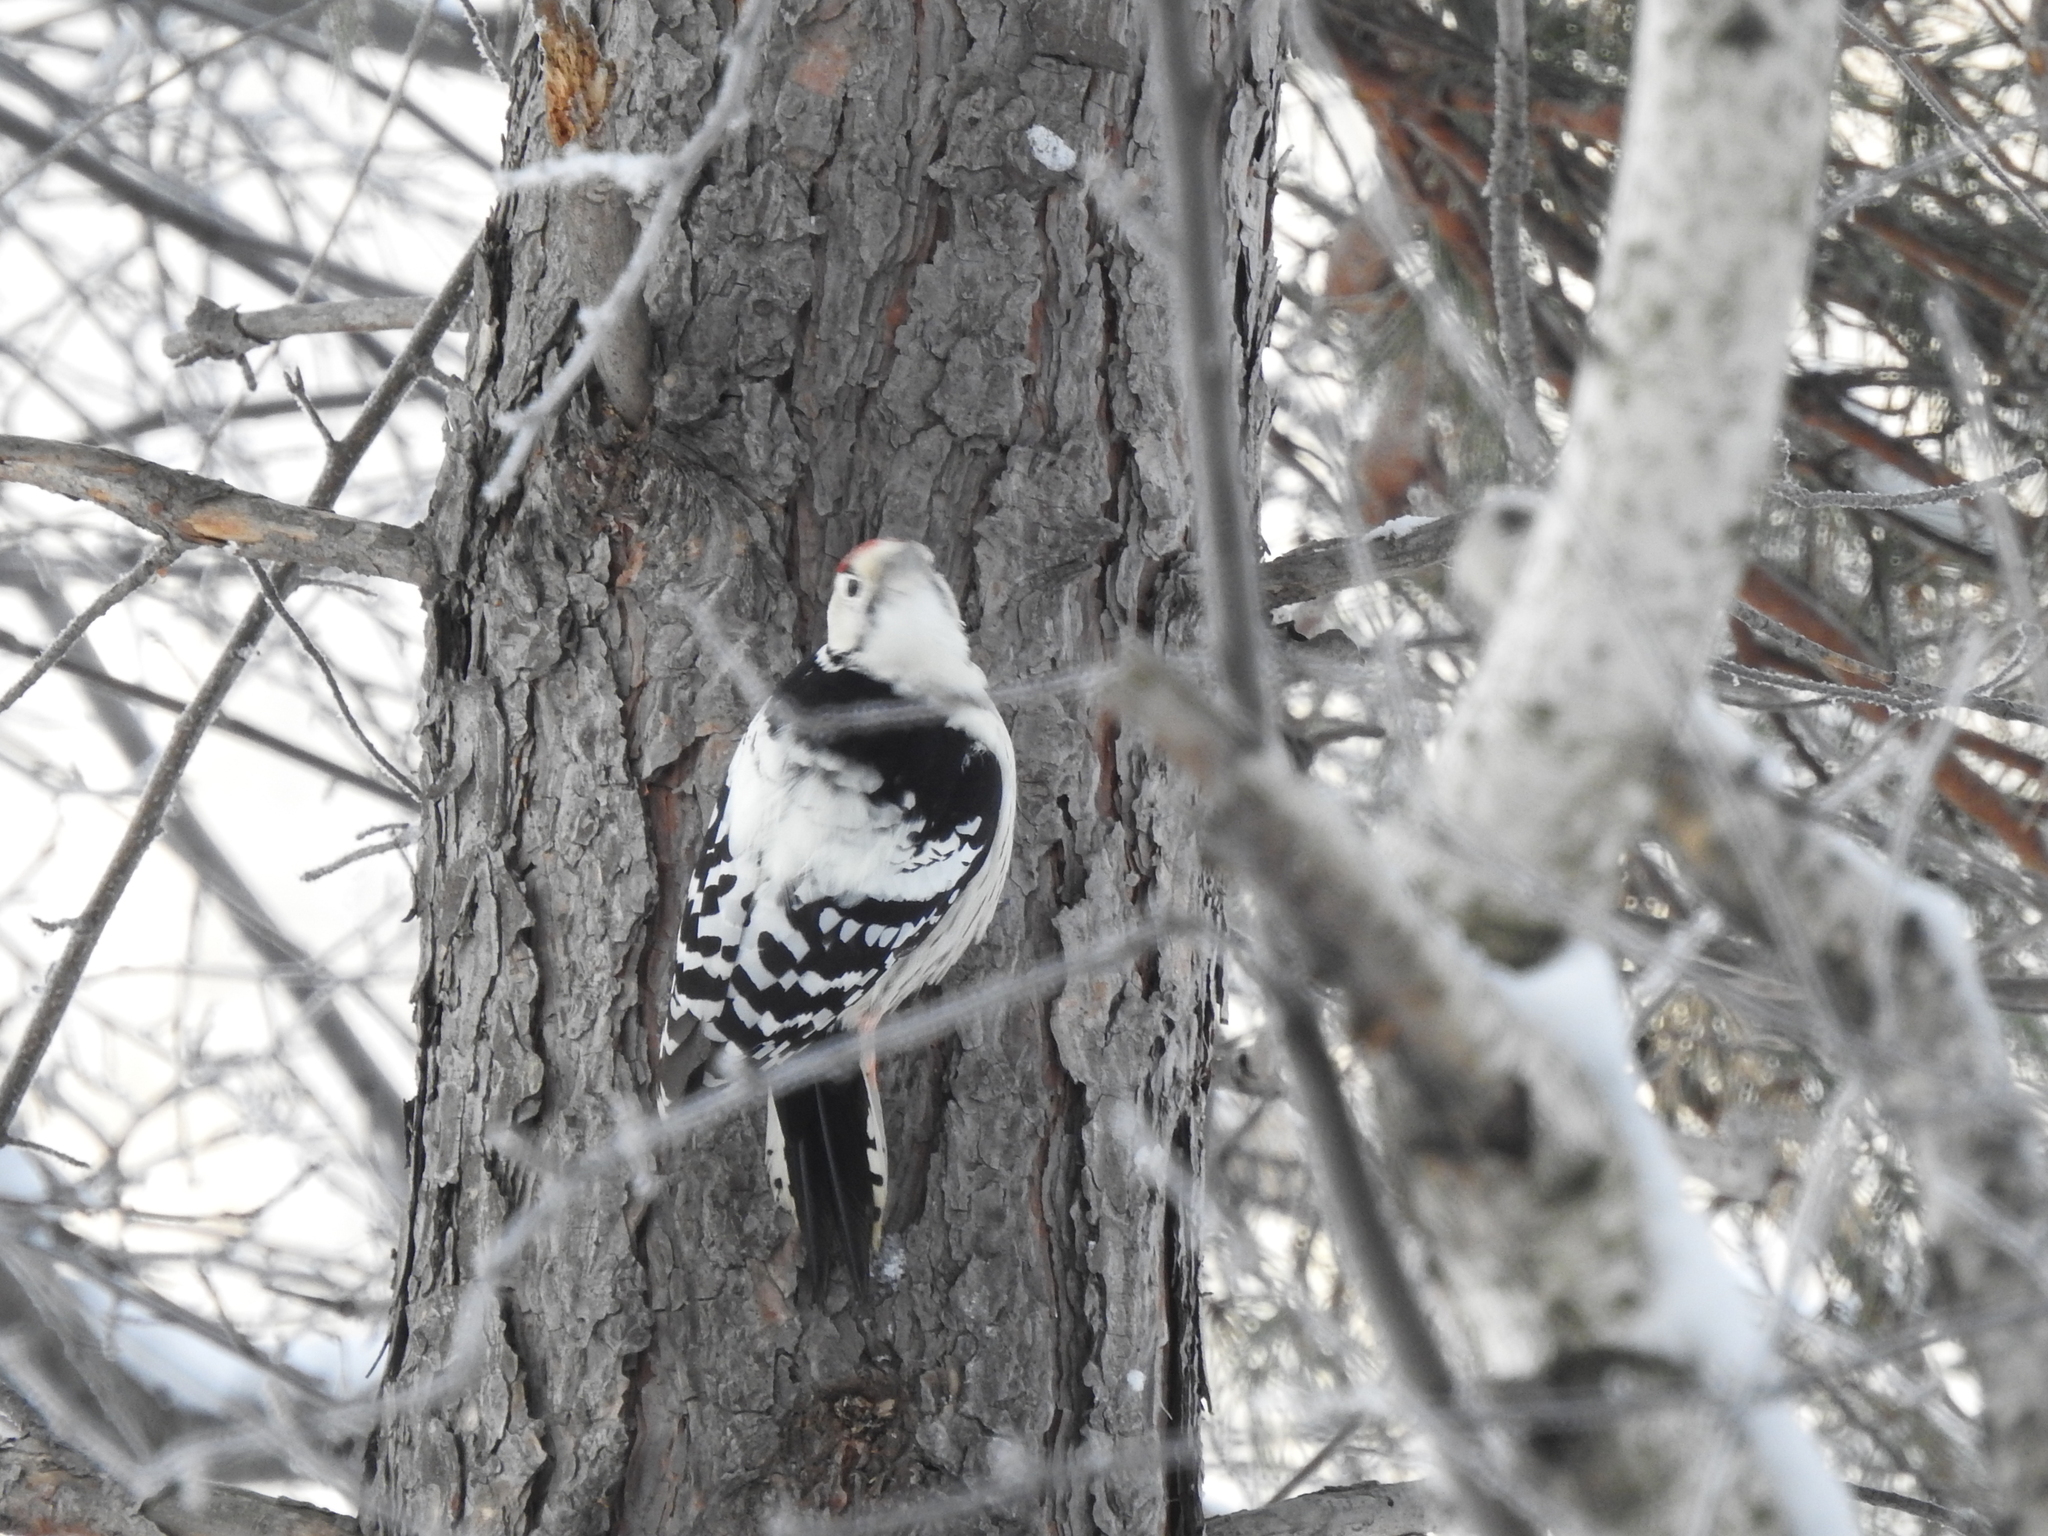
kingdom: Animalia
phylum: Chordata
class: Aves
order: Piciformes
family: Picidae
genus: Dendrocopos
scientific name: Dendrocopos leucotos
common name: White-backed woodpecker
